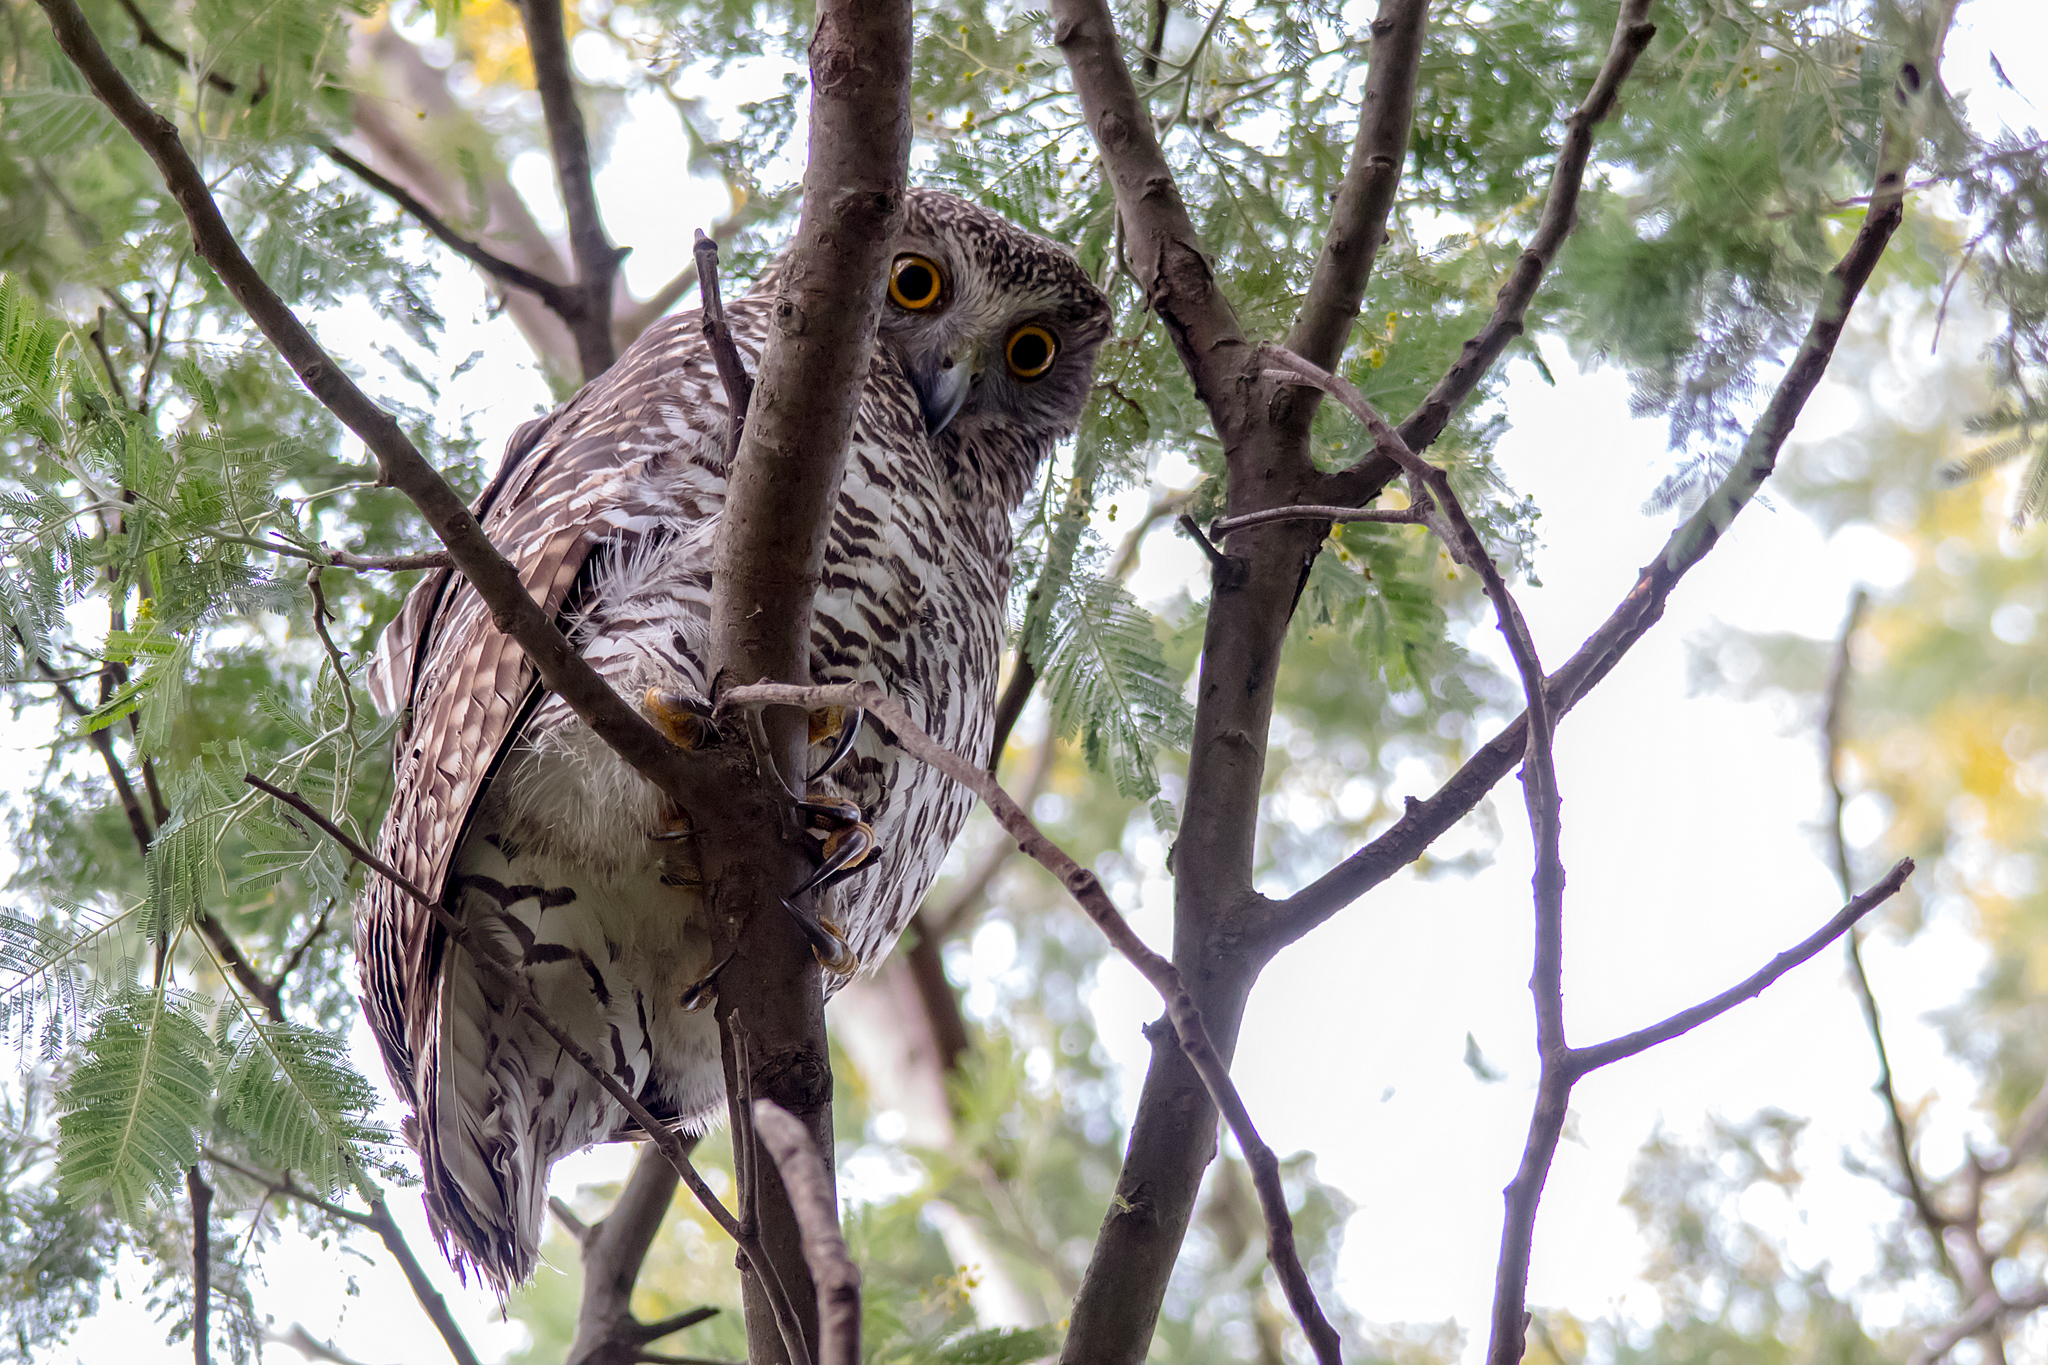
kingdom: Animalia
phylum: Chordata
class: Aves
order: Strigiformes
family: Strigidae
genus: Ninox
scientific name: Ninox strenua
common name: Powerful owl
